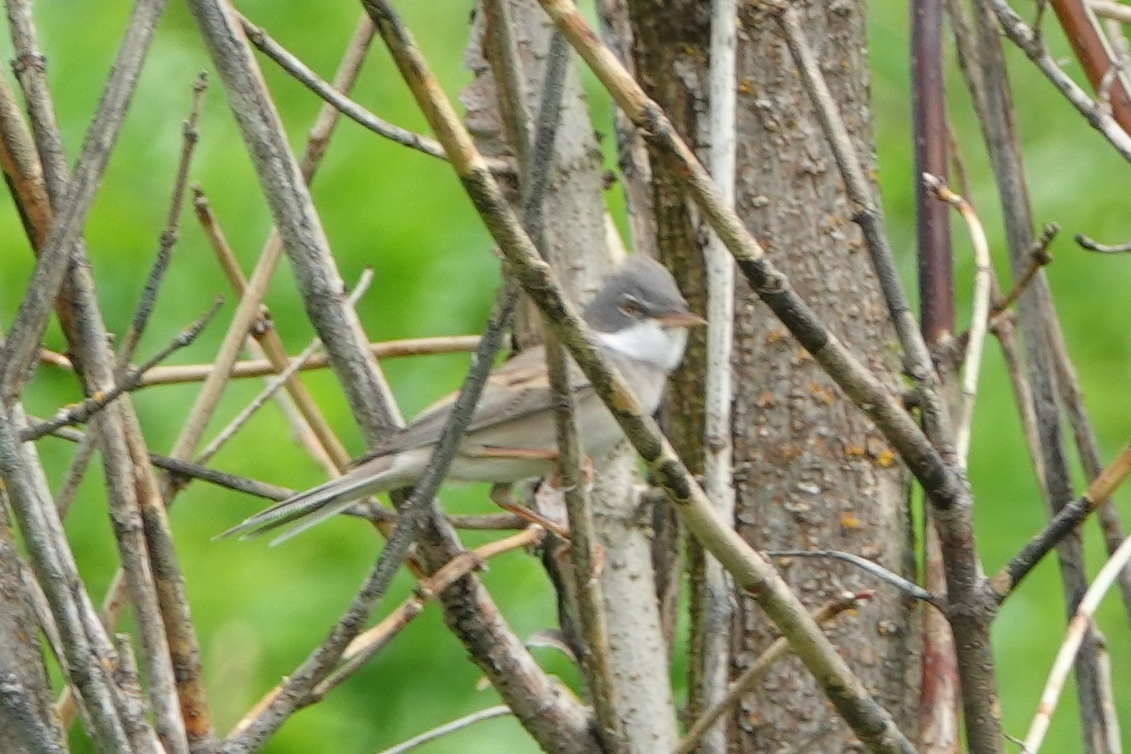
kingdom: Animalia
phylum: Chordata
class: Aves
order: Passeriformes
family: Sylviidae
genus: Sylvia
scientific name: Sylvia communis
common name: Common whitethroat
